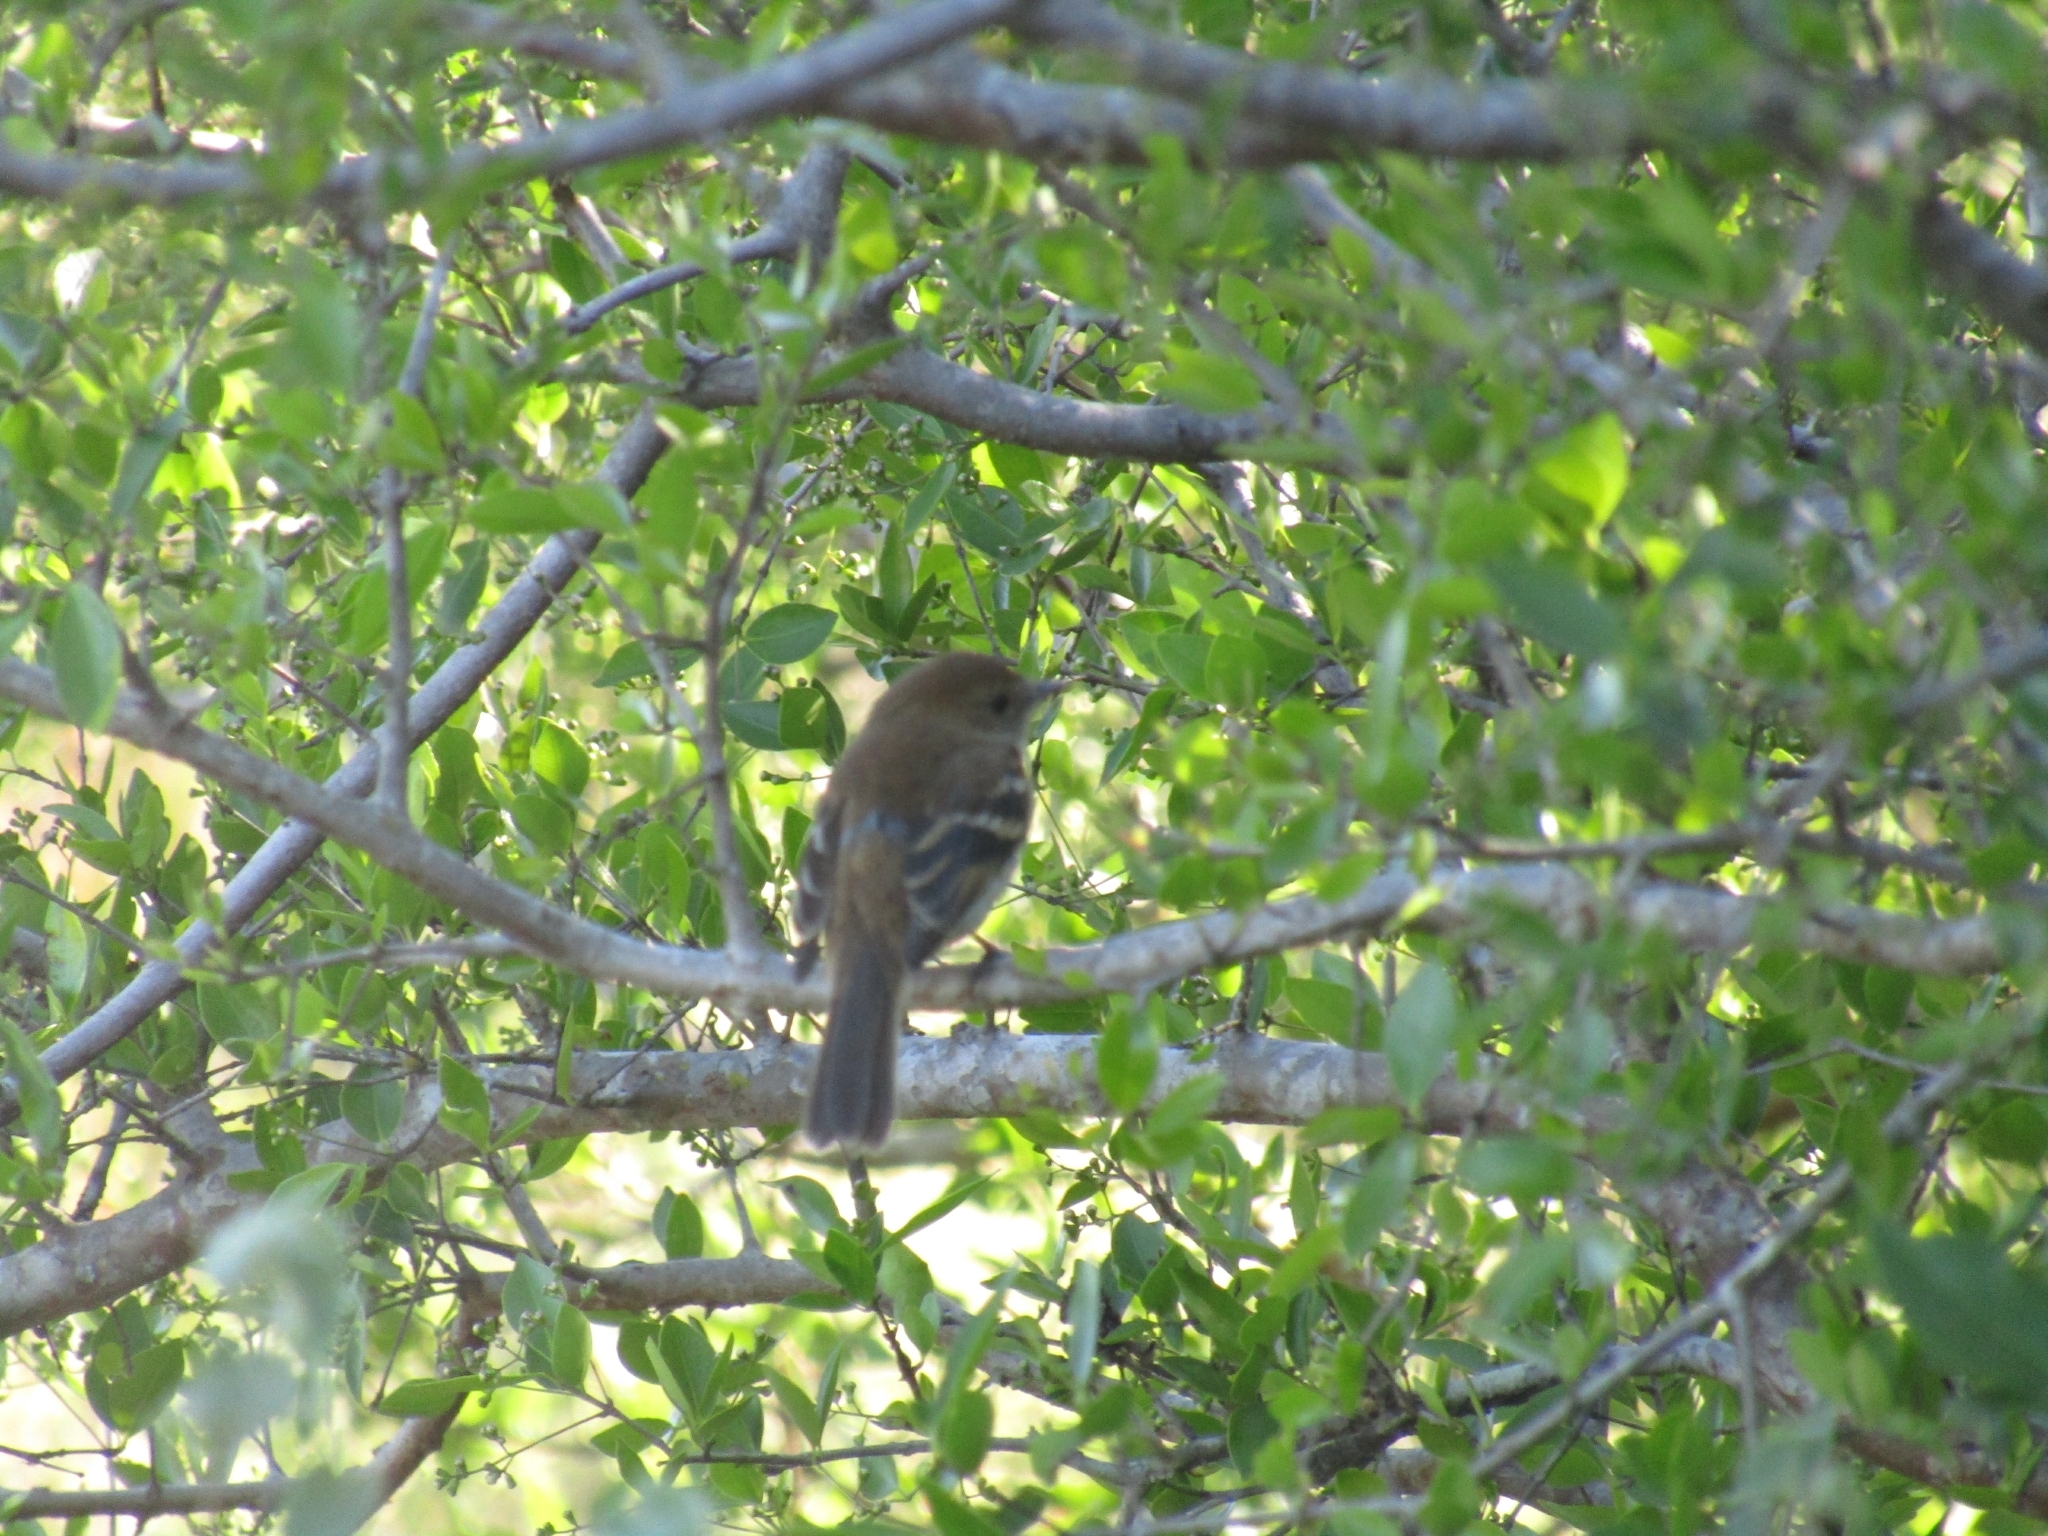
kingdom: Animalia
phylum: Chordata
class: Aves
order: Passeriformes
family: Tyrannidae
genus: Myiophobus
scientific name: Myiophobus fasciatus
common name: Bran-colored flycatcher
